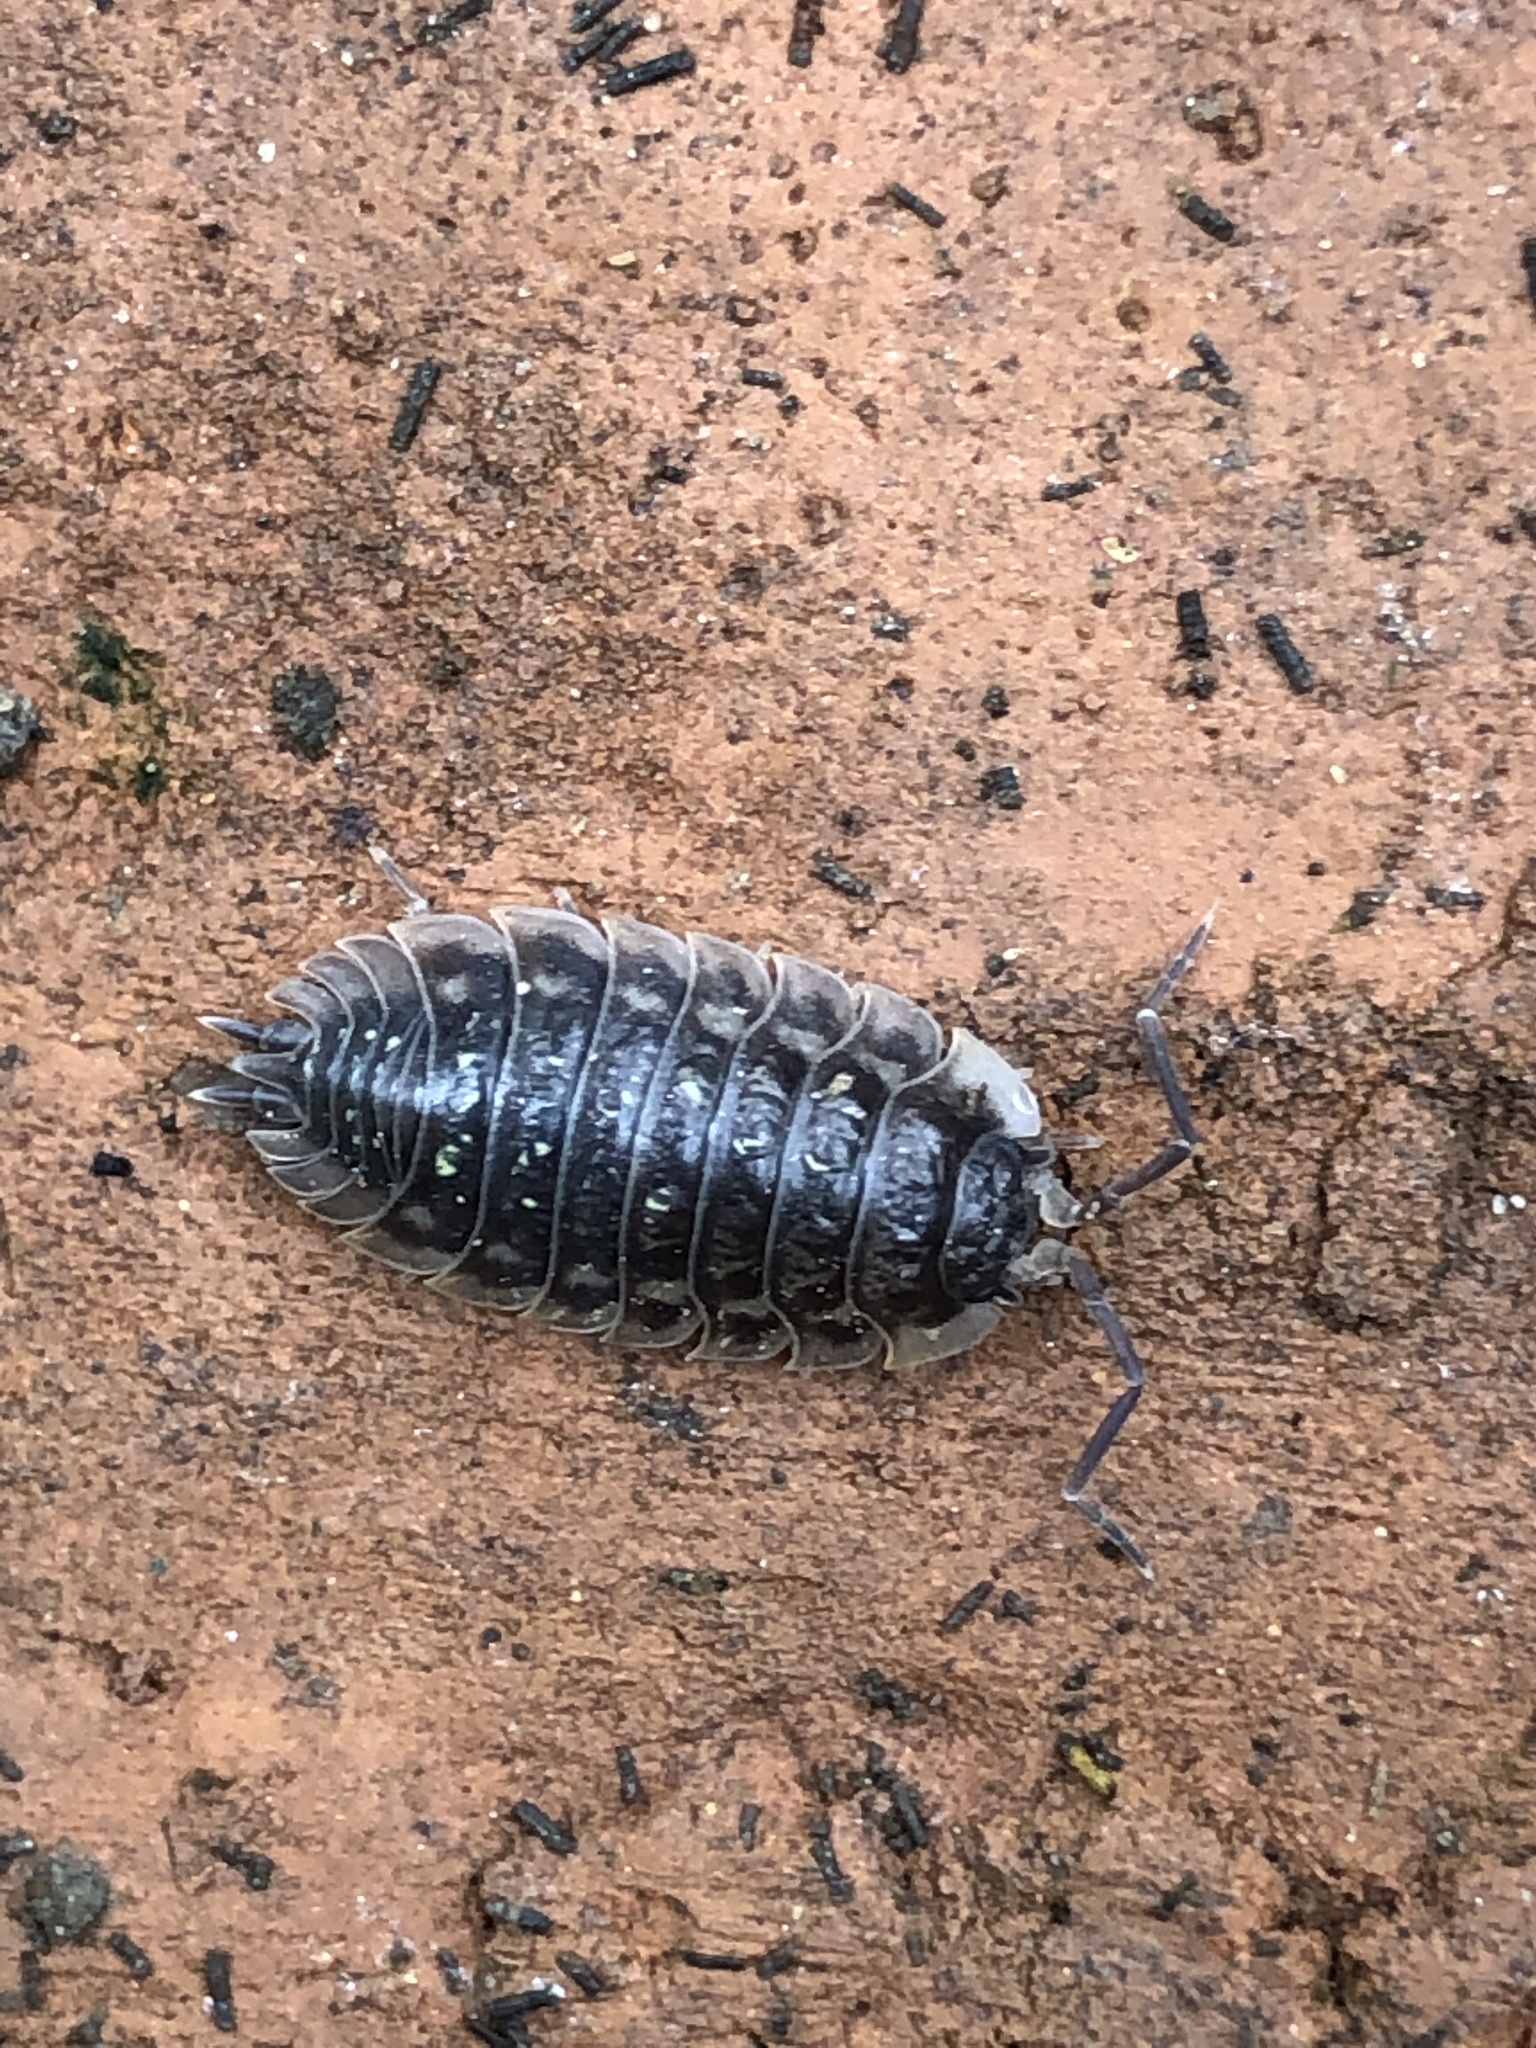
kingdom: Animalia
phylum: Arthropoda
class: Malacostraca
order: Isopoda
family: Oniscidae
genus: Oniscus
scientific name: Oniscus asellus
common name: Common shiny woodlouse
